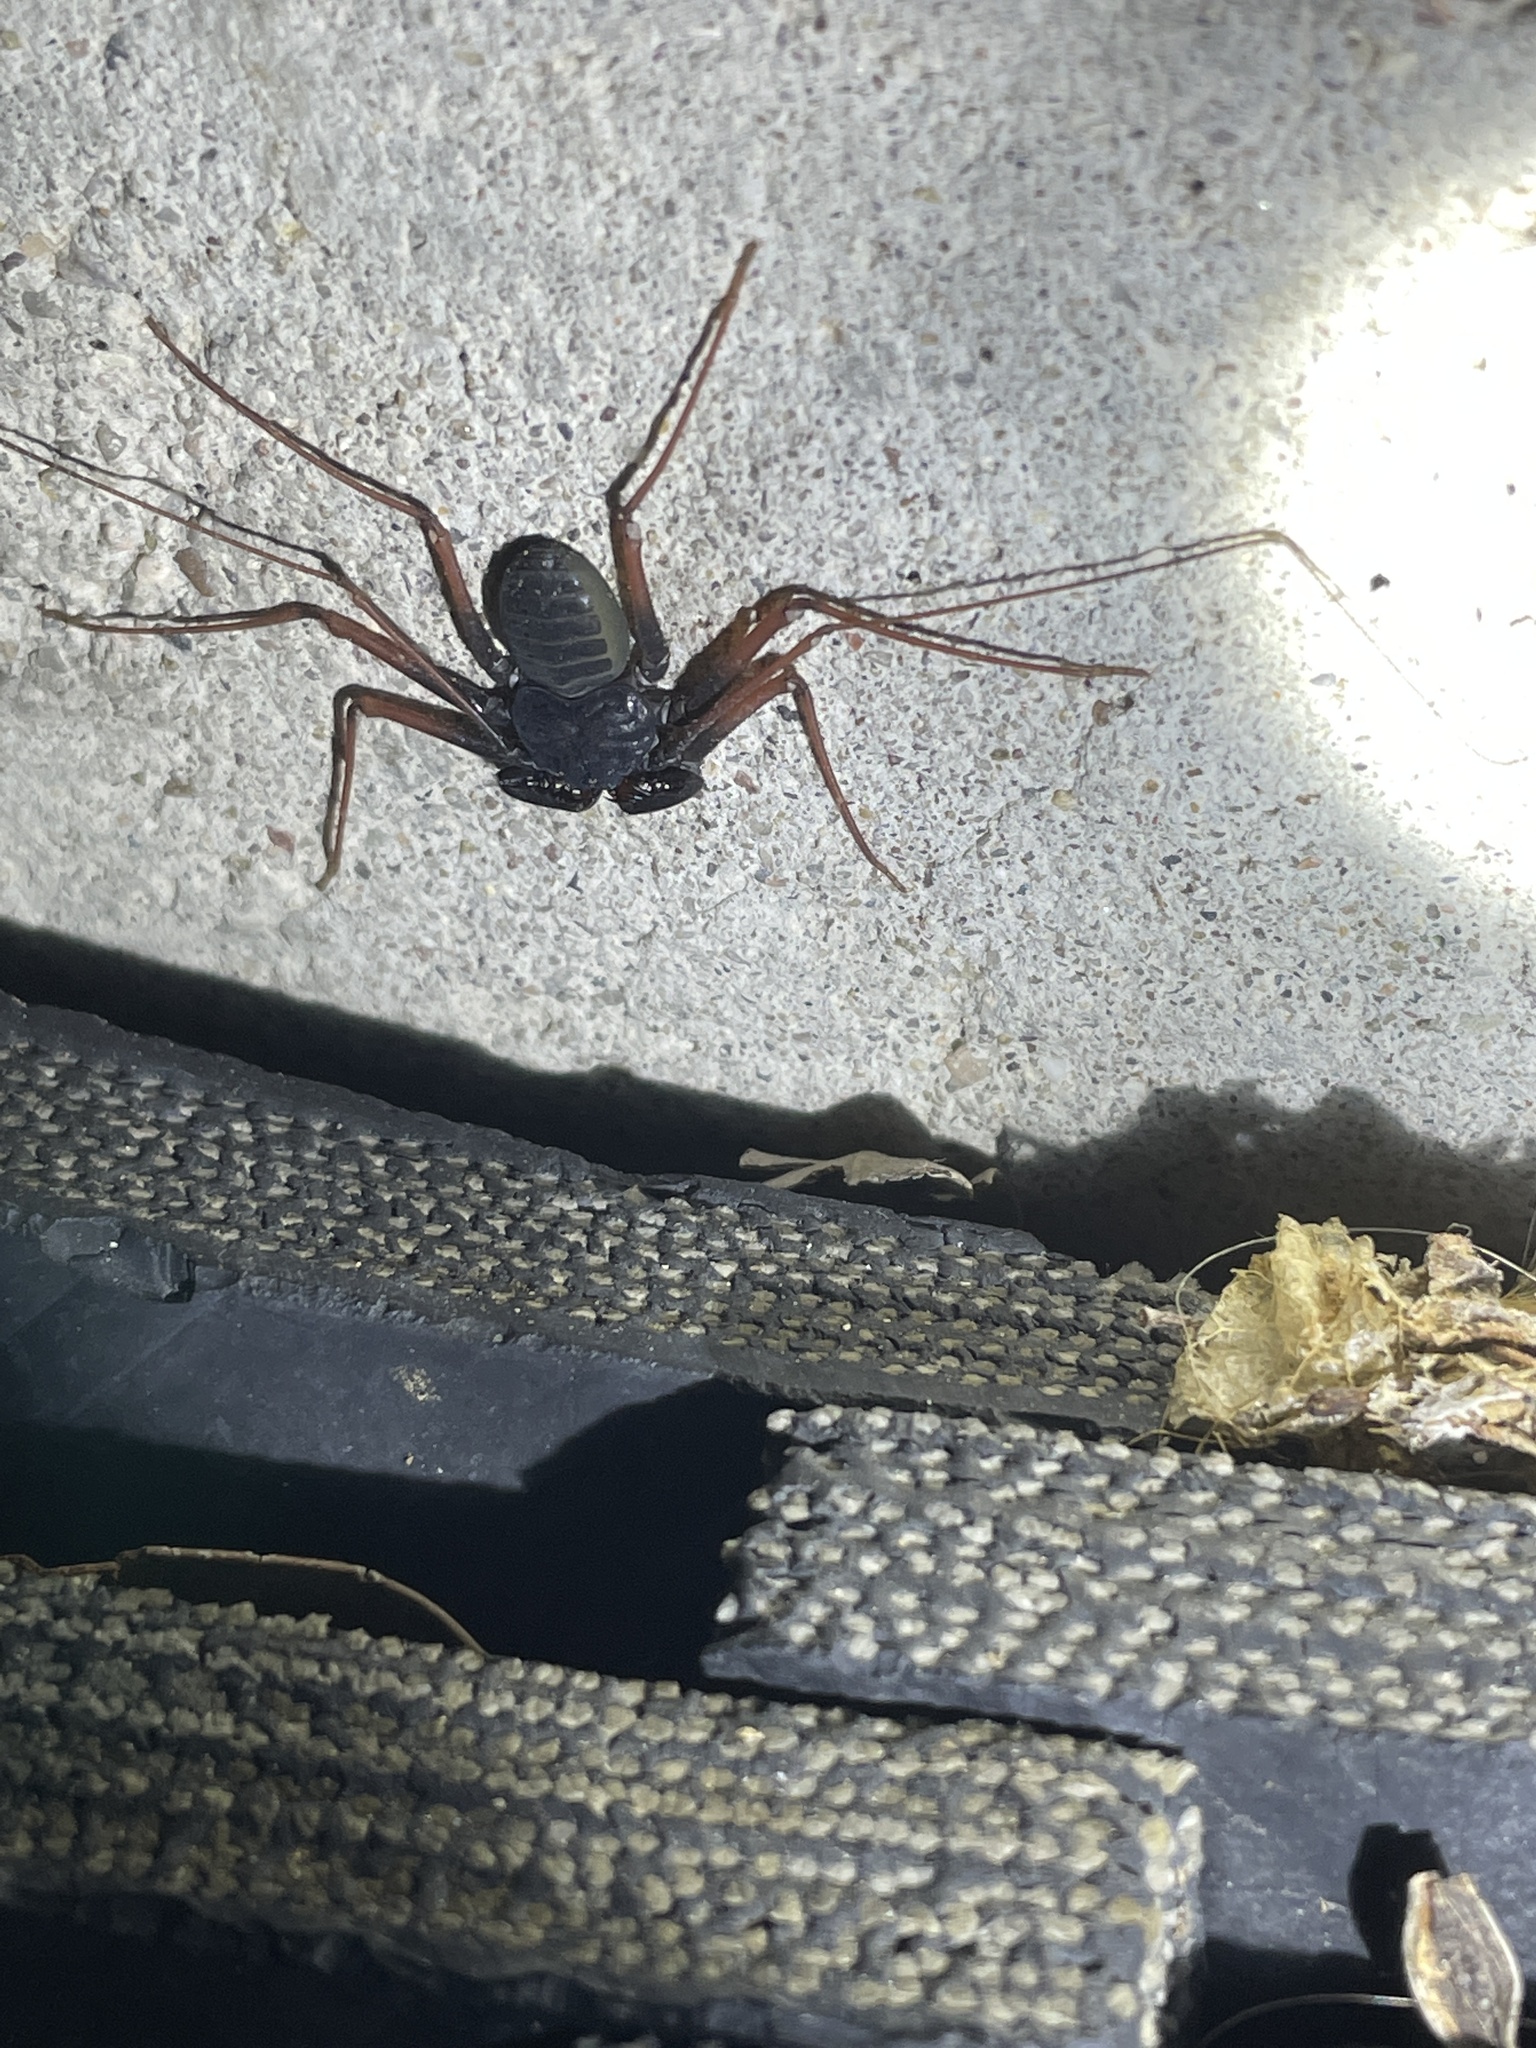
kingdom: Animalia
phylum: Arthropoda
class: Arachnida
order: Amblypygi
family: Phrynidae
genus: Paraphrynus
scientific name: Paraphrynus carolynae
